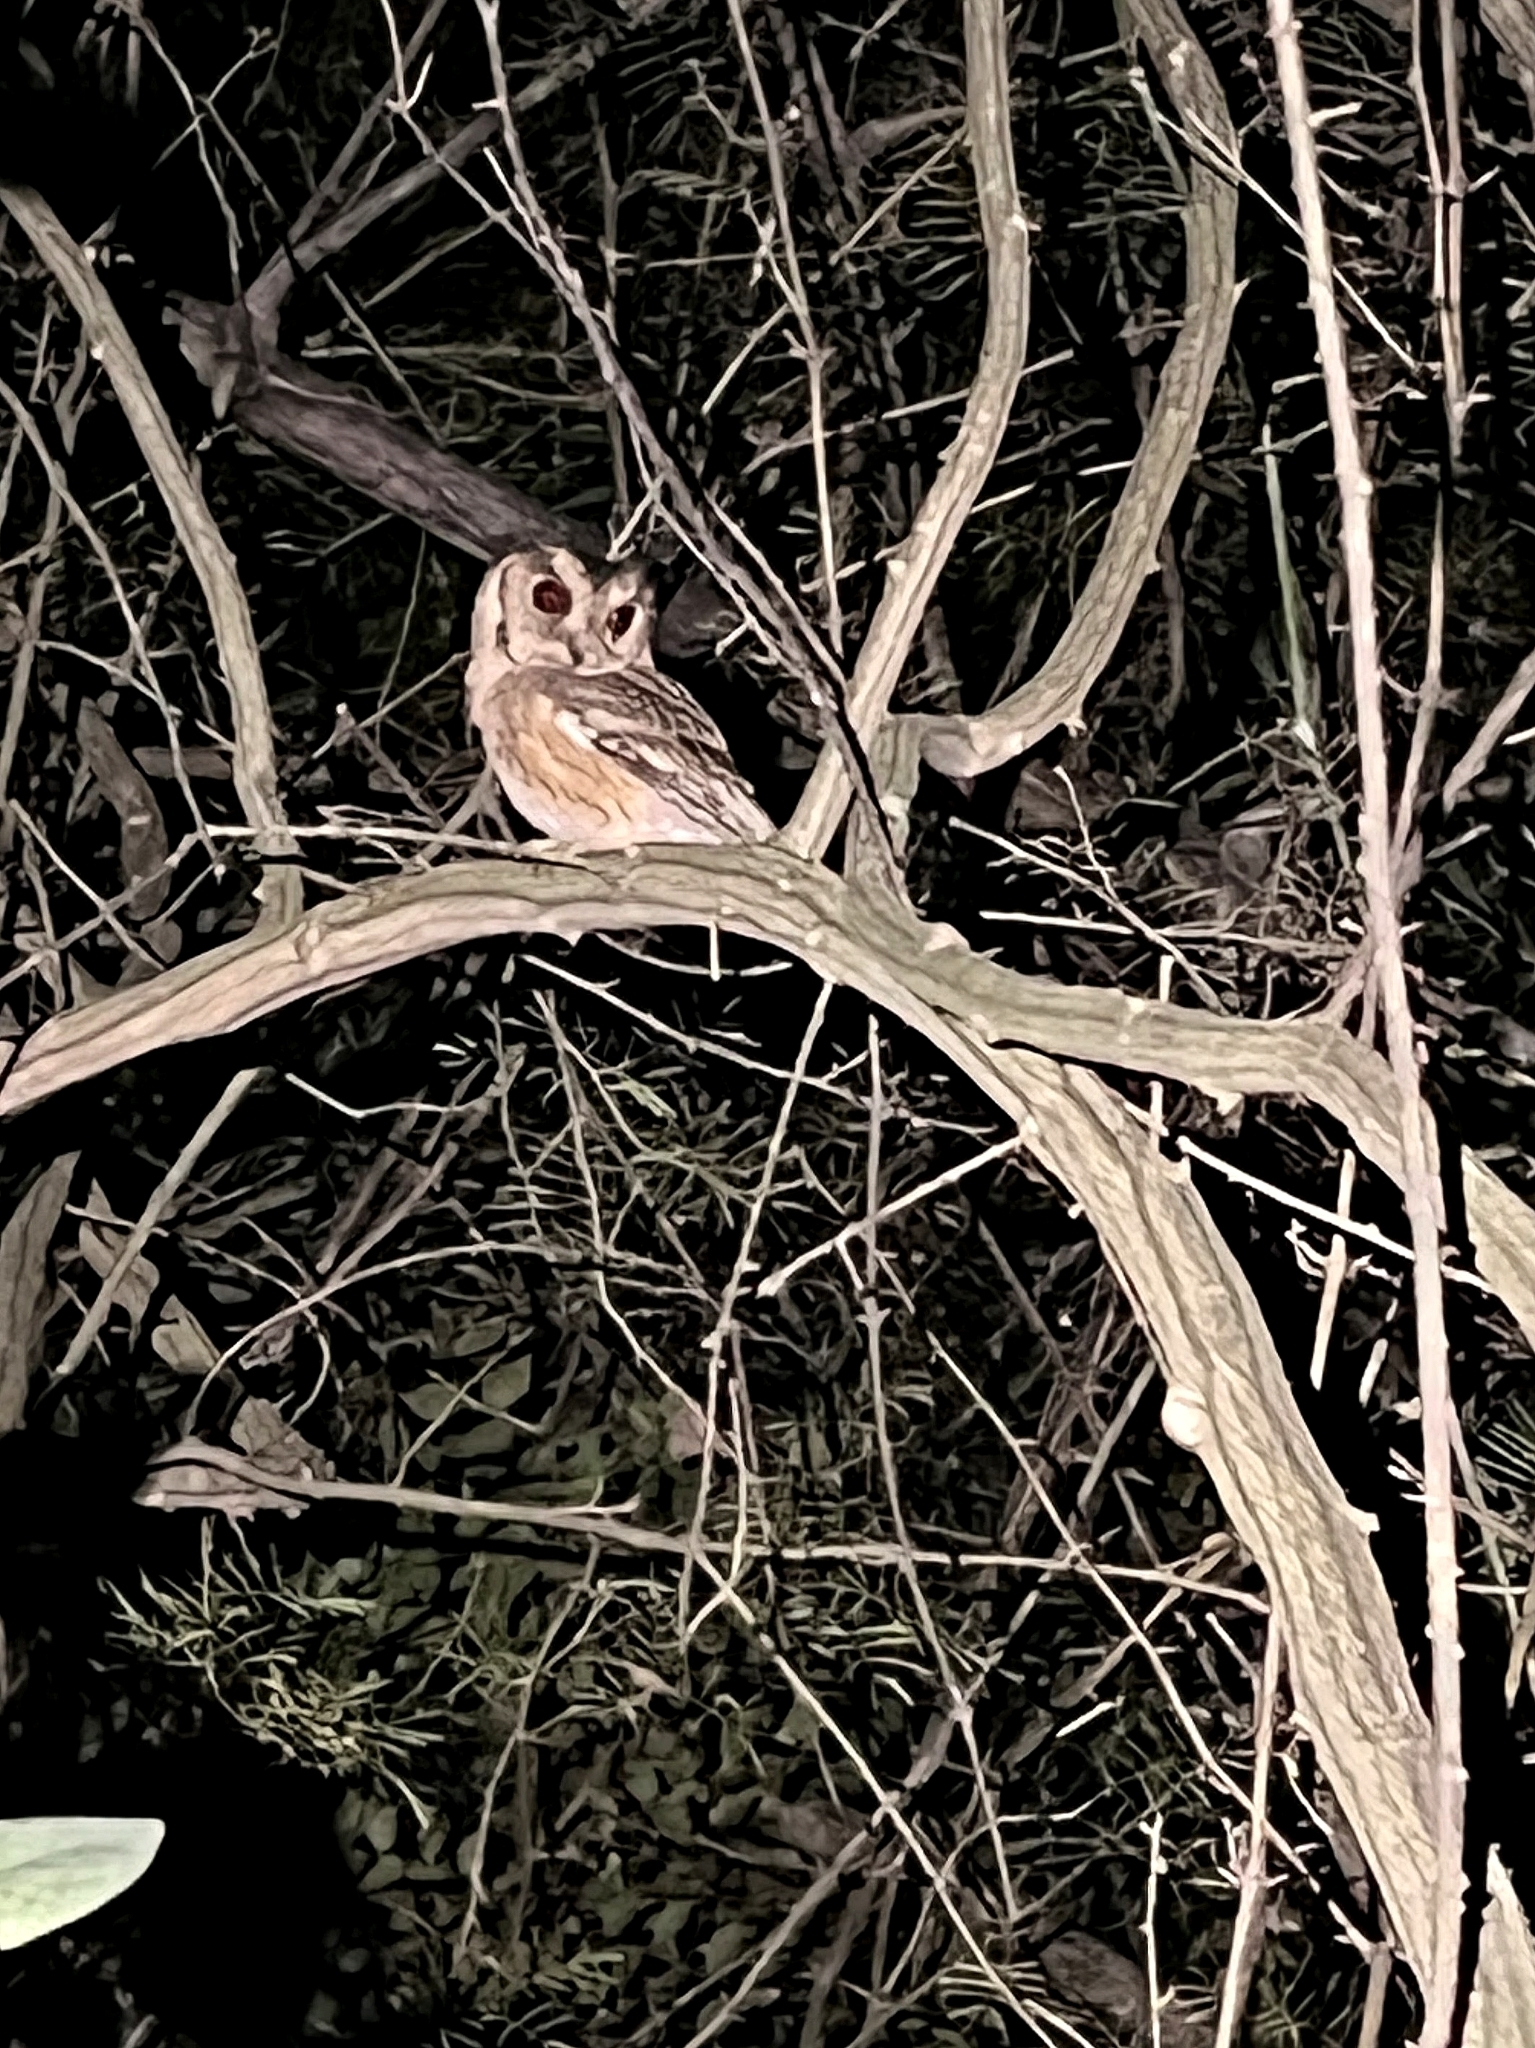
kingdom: Animalia
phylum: Chordata
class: Aves
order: Strigiformes
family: Strigidae
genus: Otus
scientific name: Otus bakkamoena
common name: Indian scops owl
